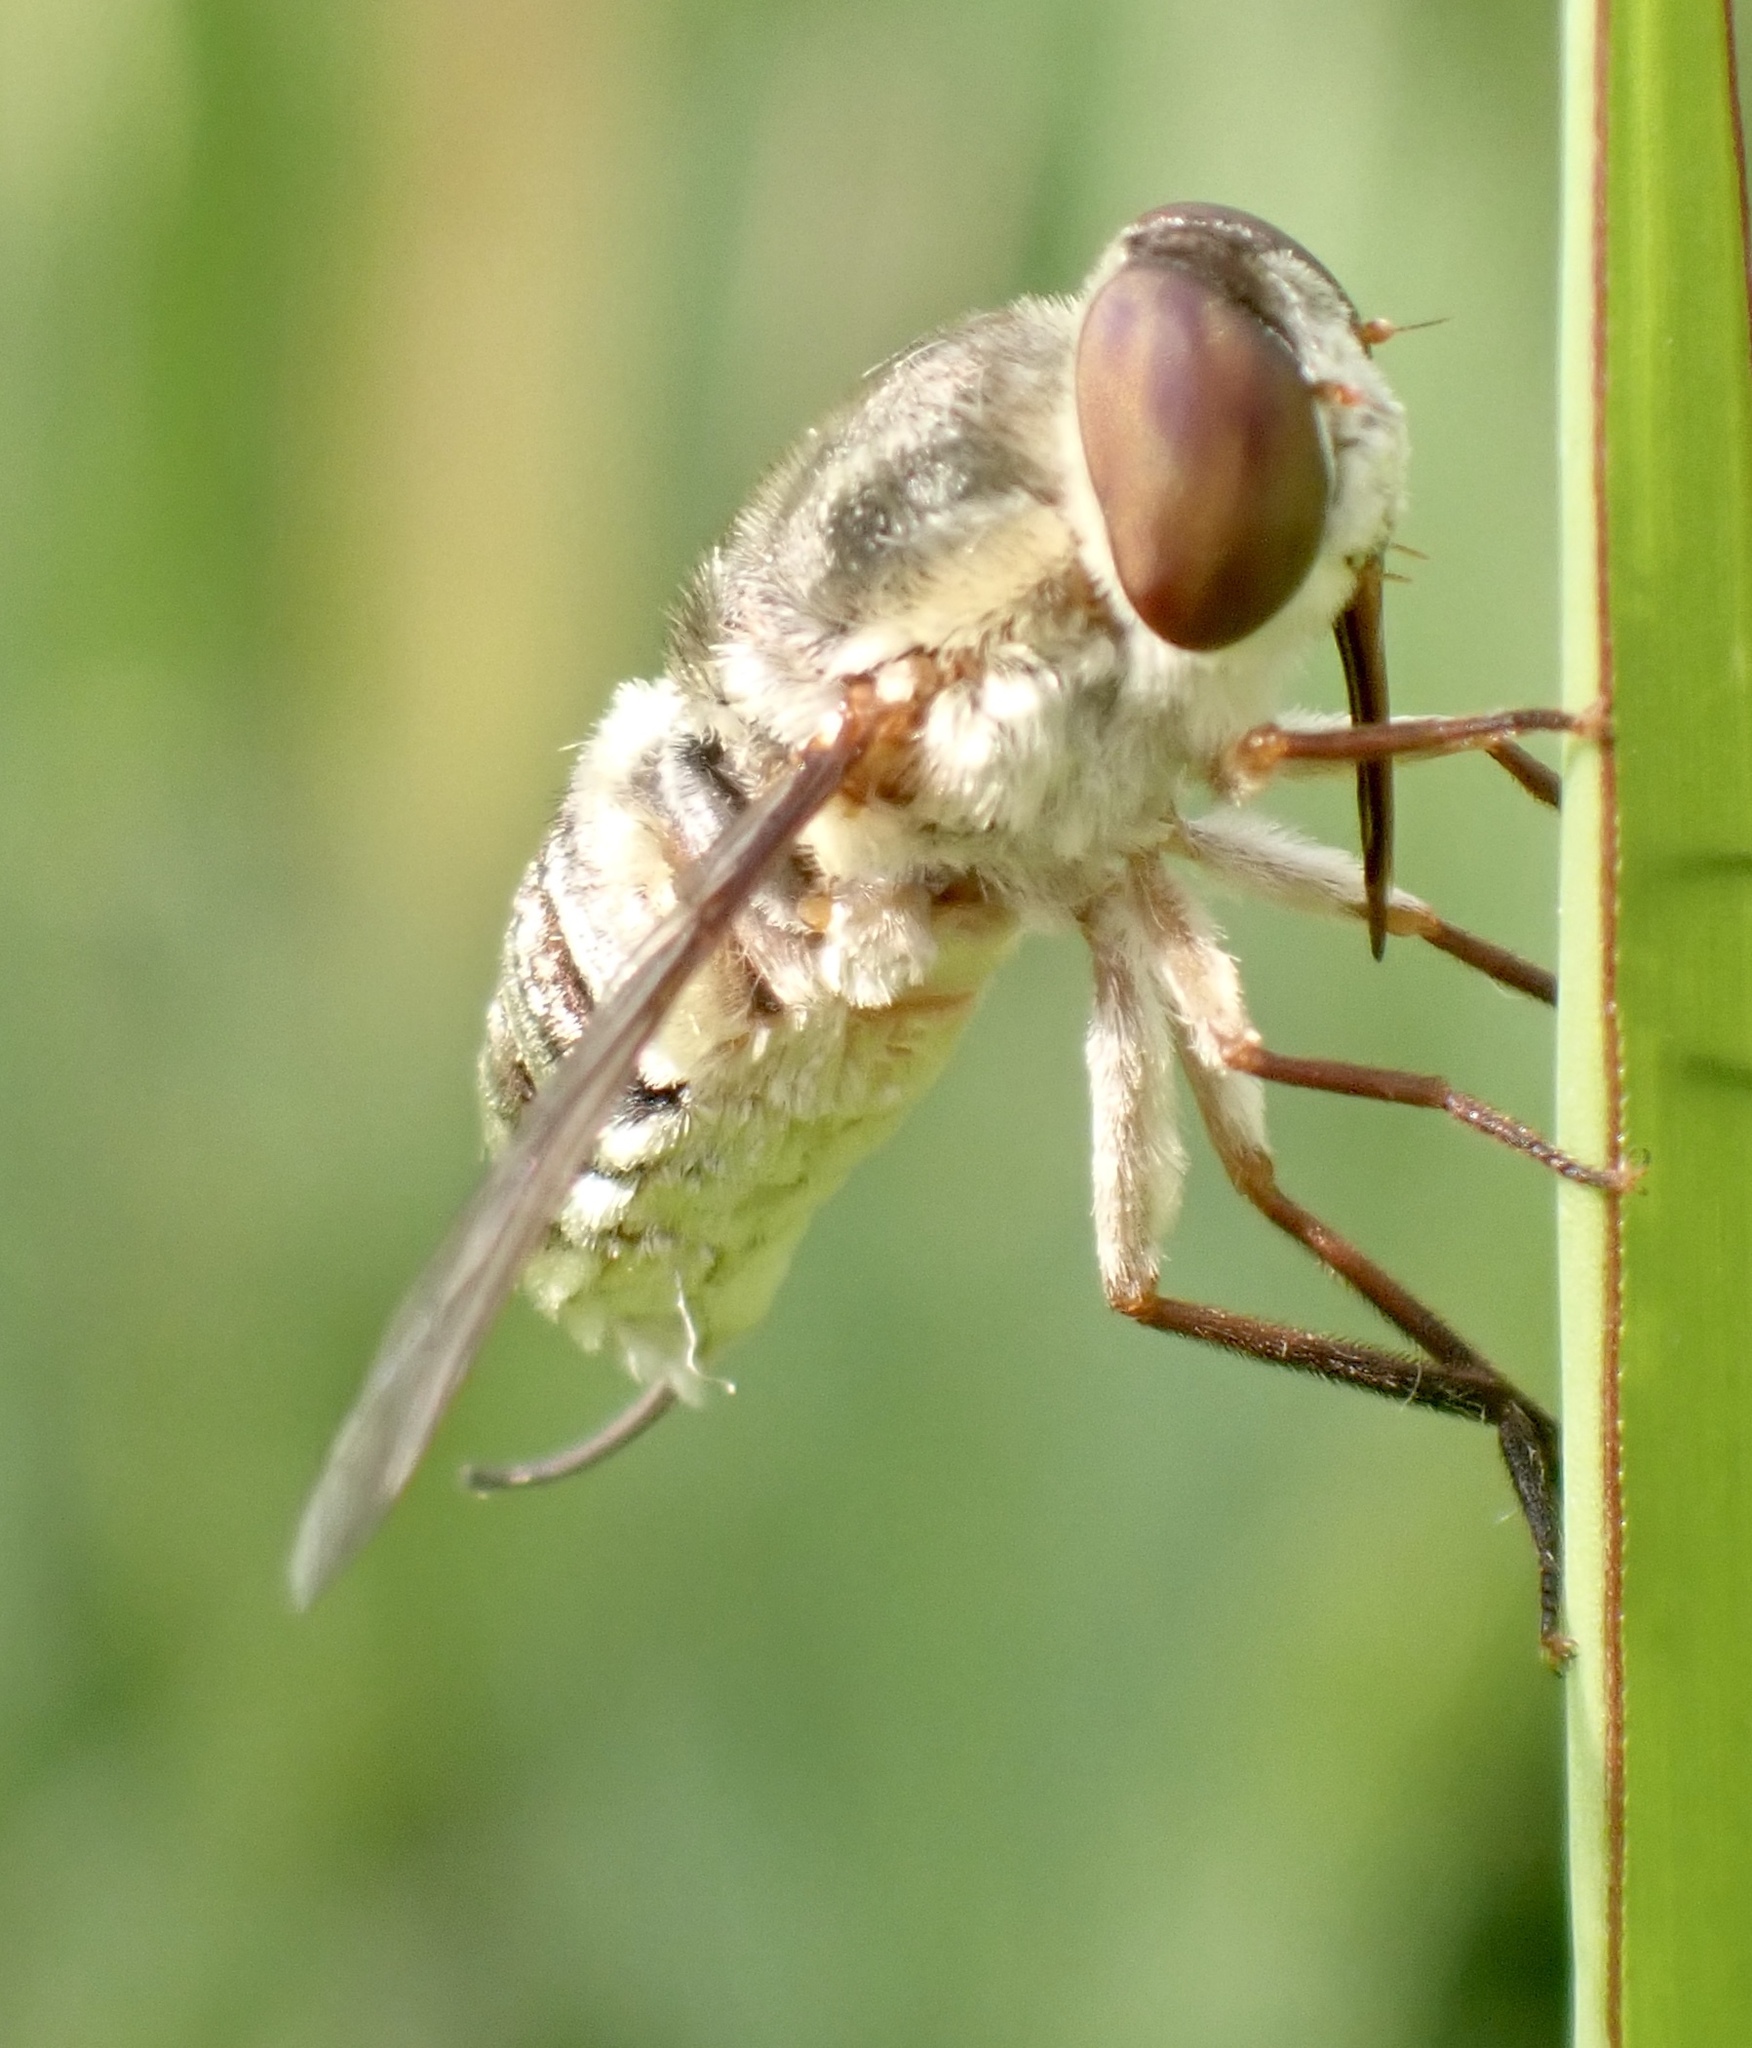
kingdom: Animalia
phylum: Arthropoda
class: Insecta
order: Diptera
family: Nemestrinidae
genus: Neorhynchocephalus
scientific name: Neorhynchocephalus volaticus
